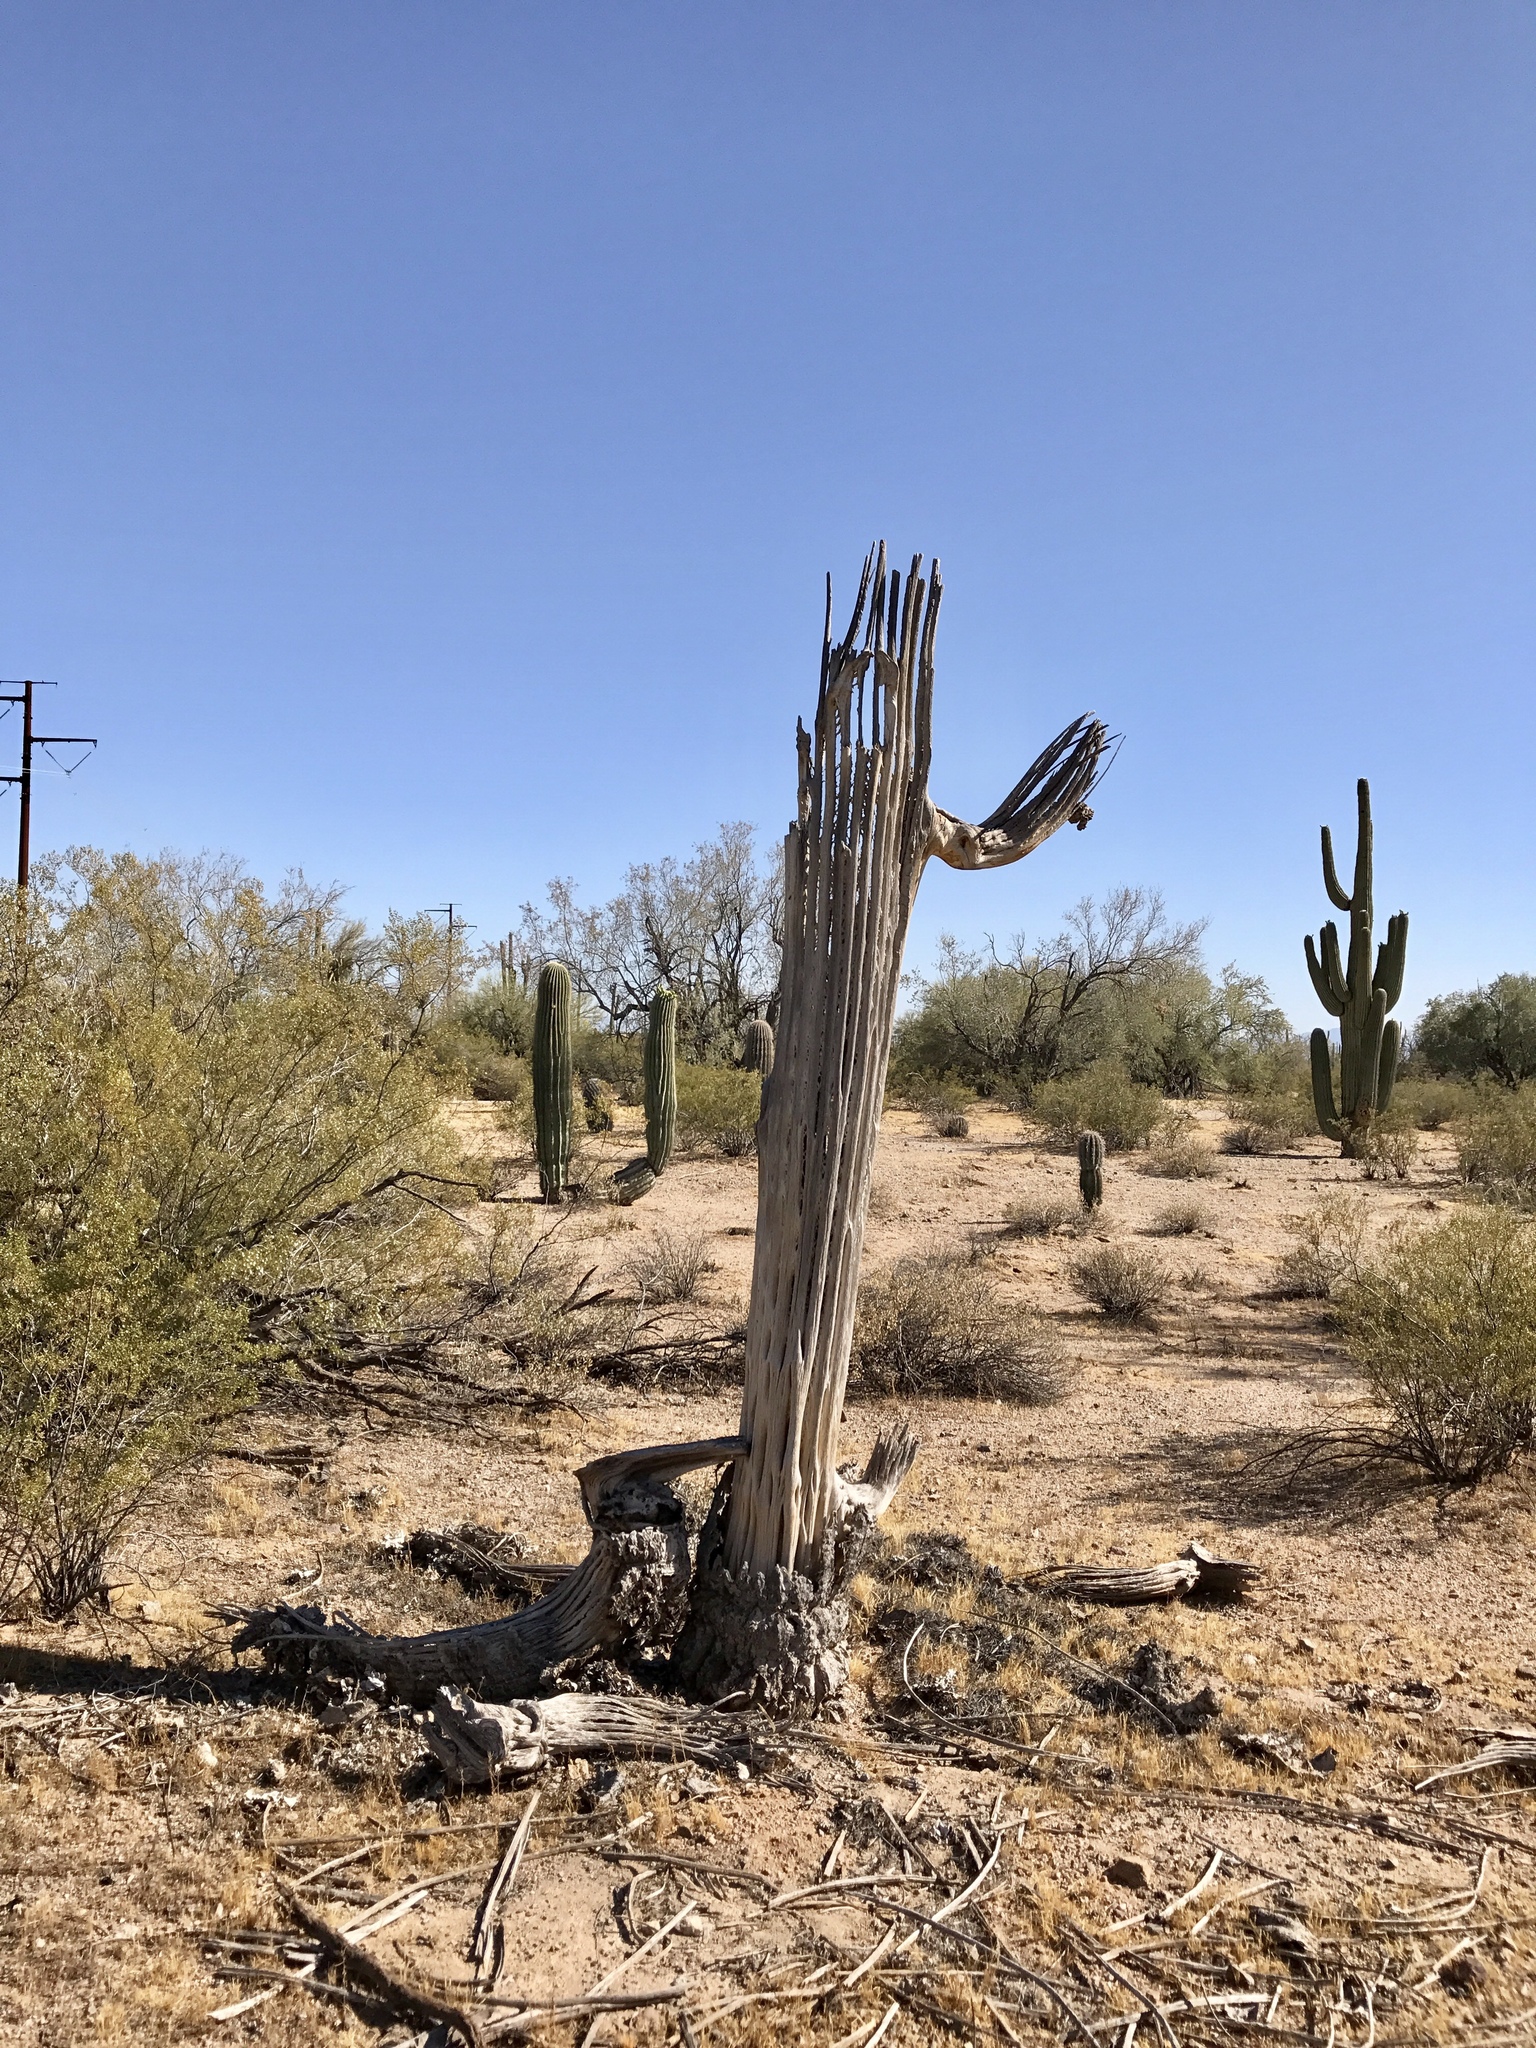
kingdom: Plantae
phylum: Tracheophyta
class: Magnoliopsida
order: Caryophyllales
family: Cactaceae
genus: Carnegiea
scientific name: Carnegiea gigantea
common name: Saguaro
